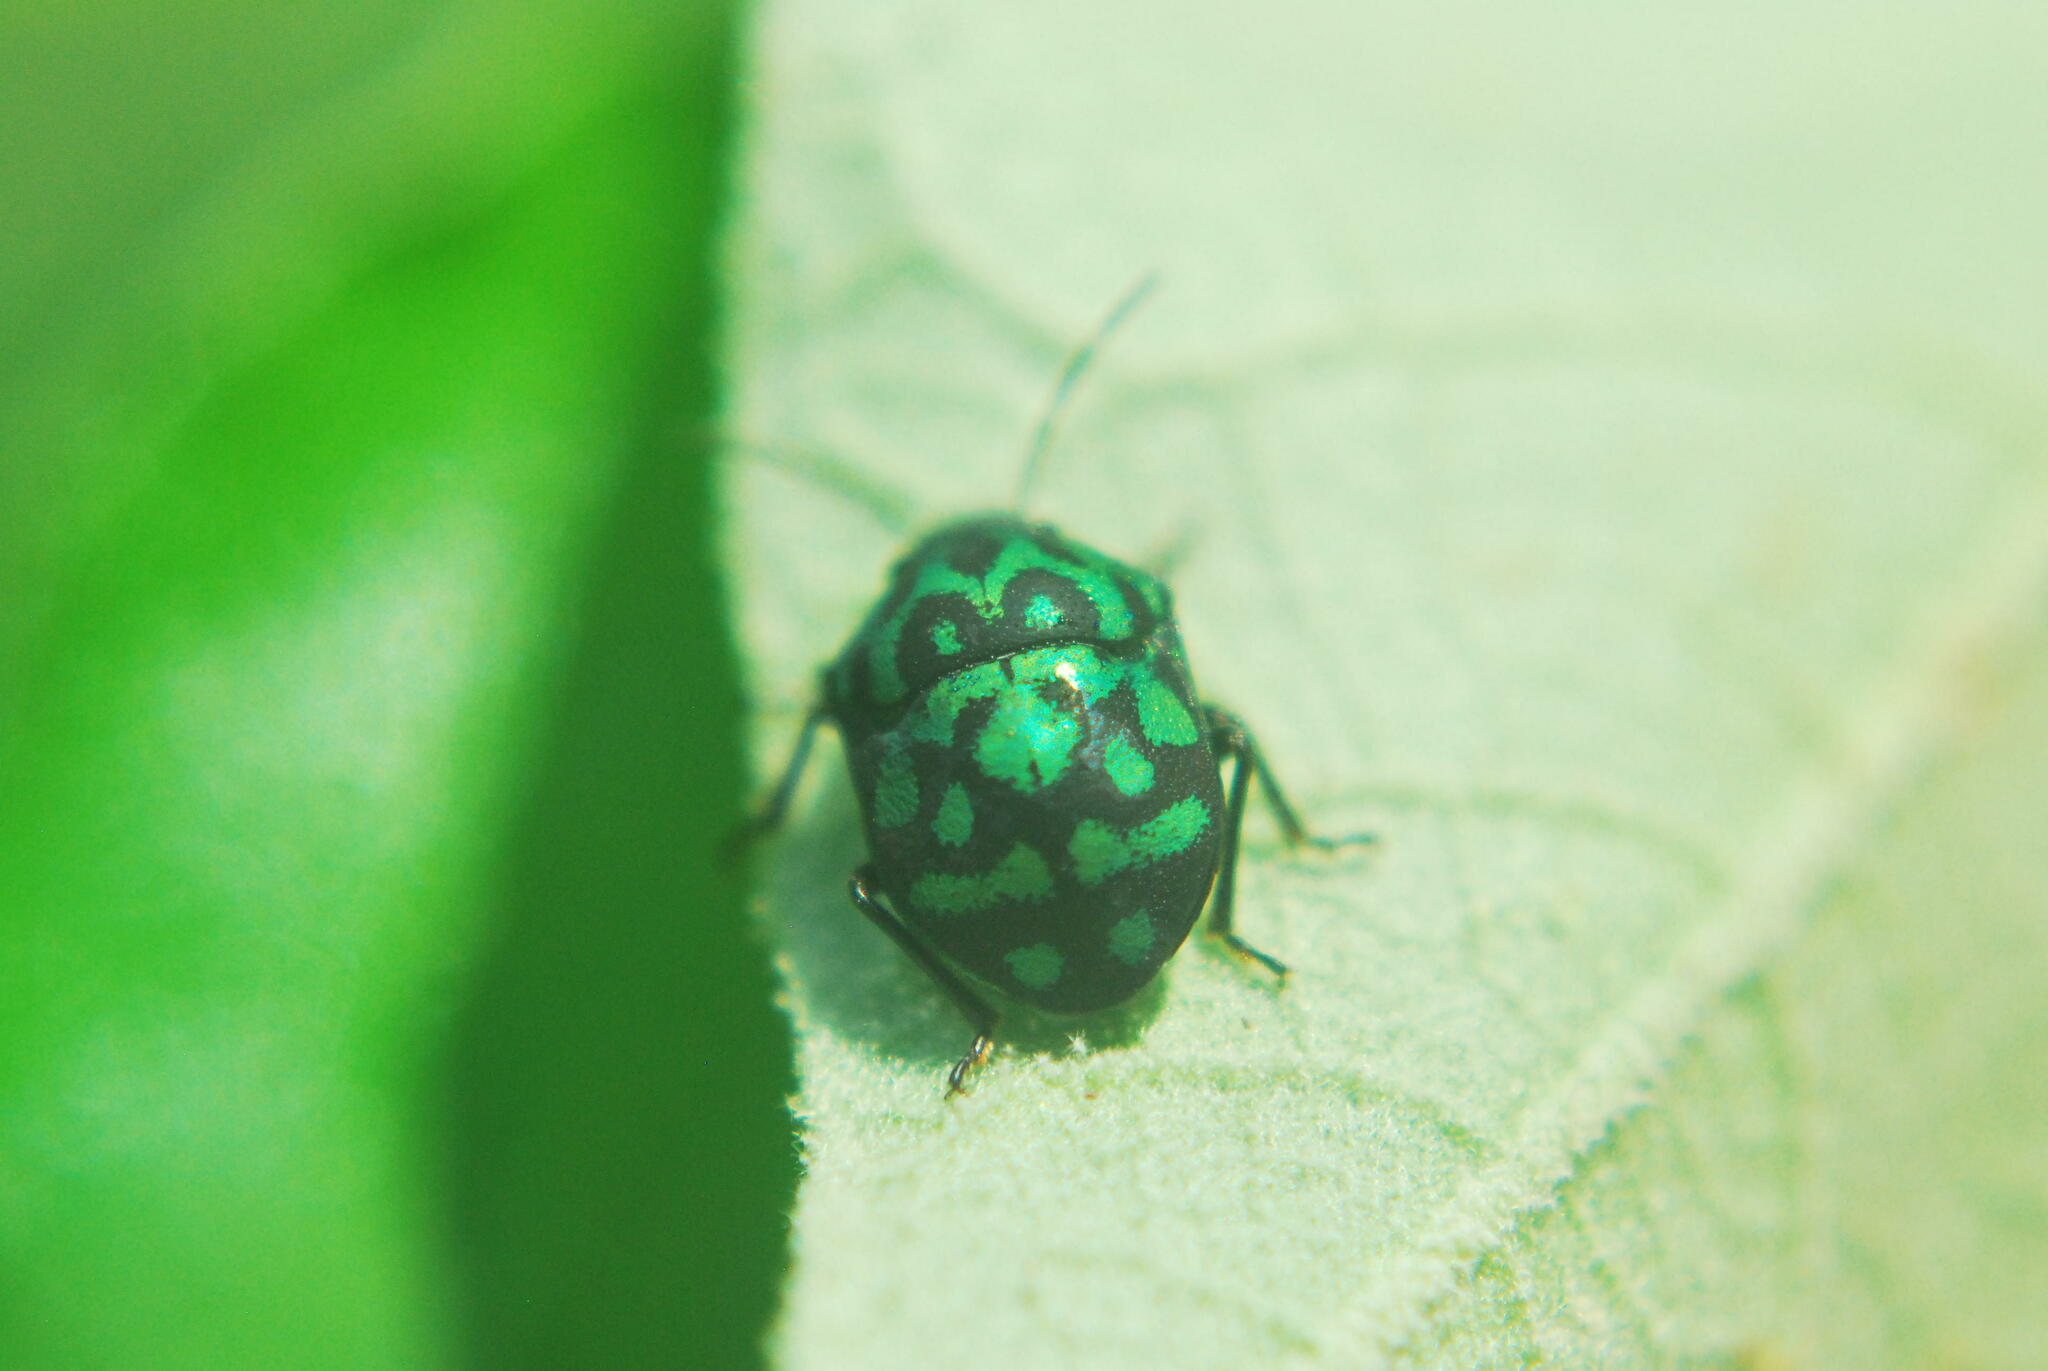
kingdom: Animalia
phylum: Arthropoda
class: Insecta
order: Hemiptera
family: Scutelleridae
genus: Orsilochides
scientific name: Orsilochides variabilis
